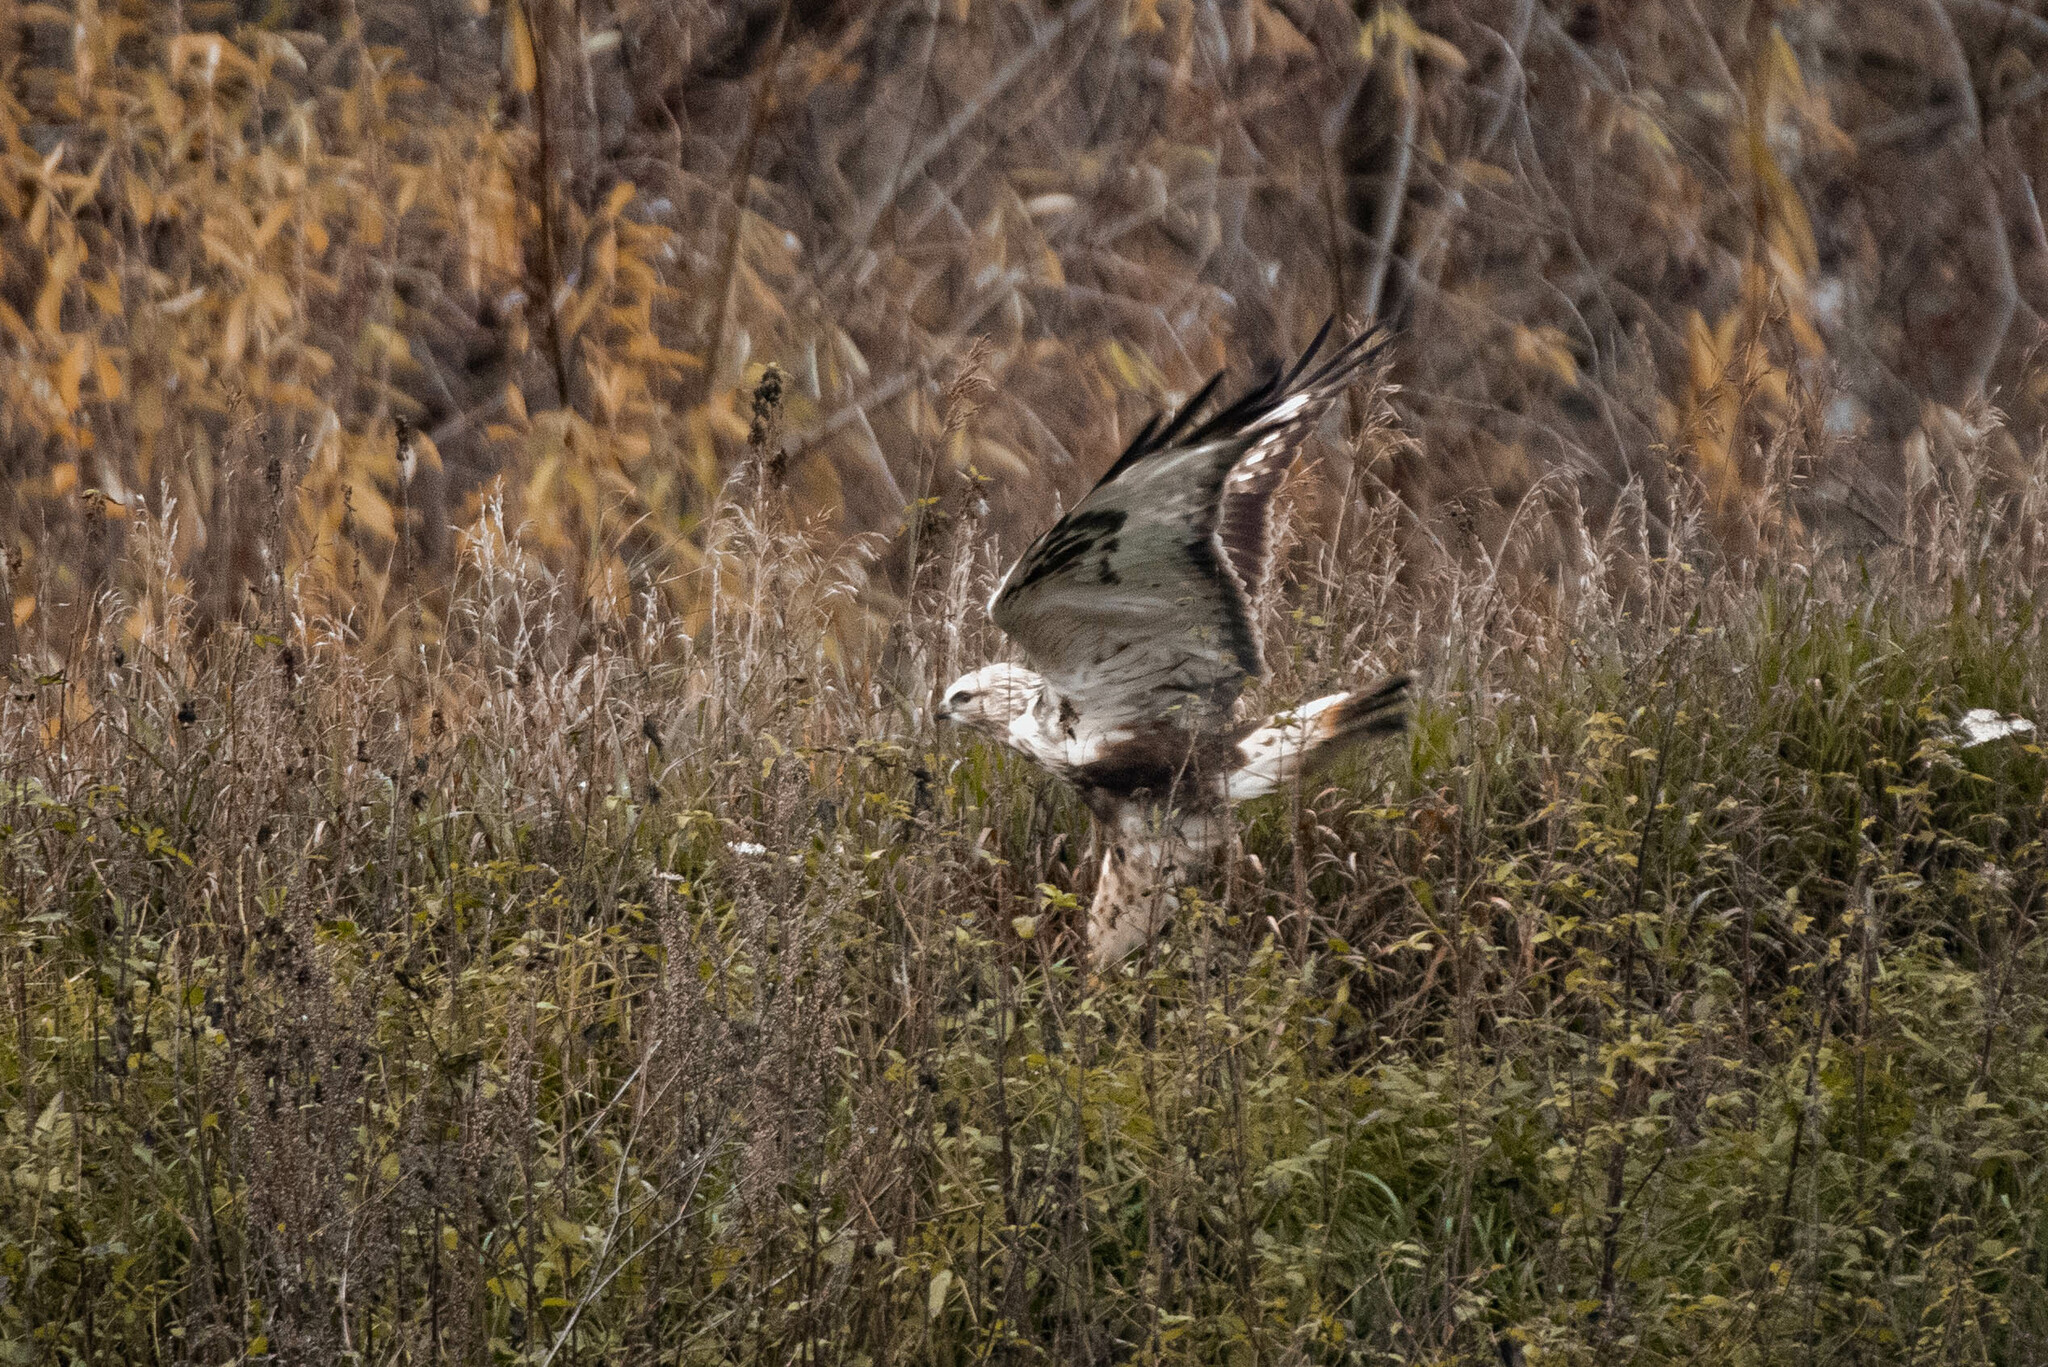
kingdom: Animalia
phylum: Chordata
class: Aves
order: Accipitriformes
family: Accipitridae
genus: Buteo
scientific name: Buteo lagopus
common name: Rough-legged buzzard
